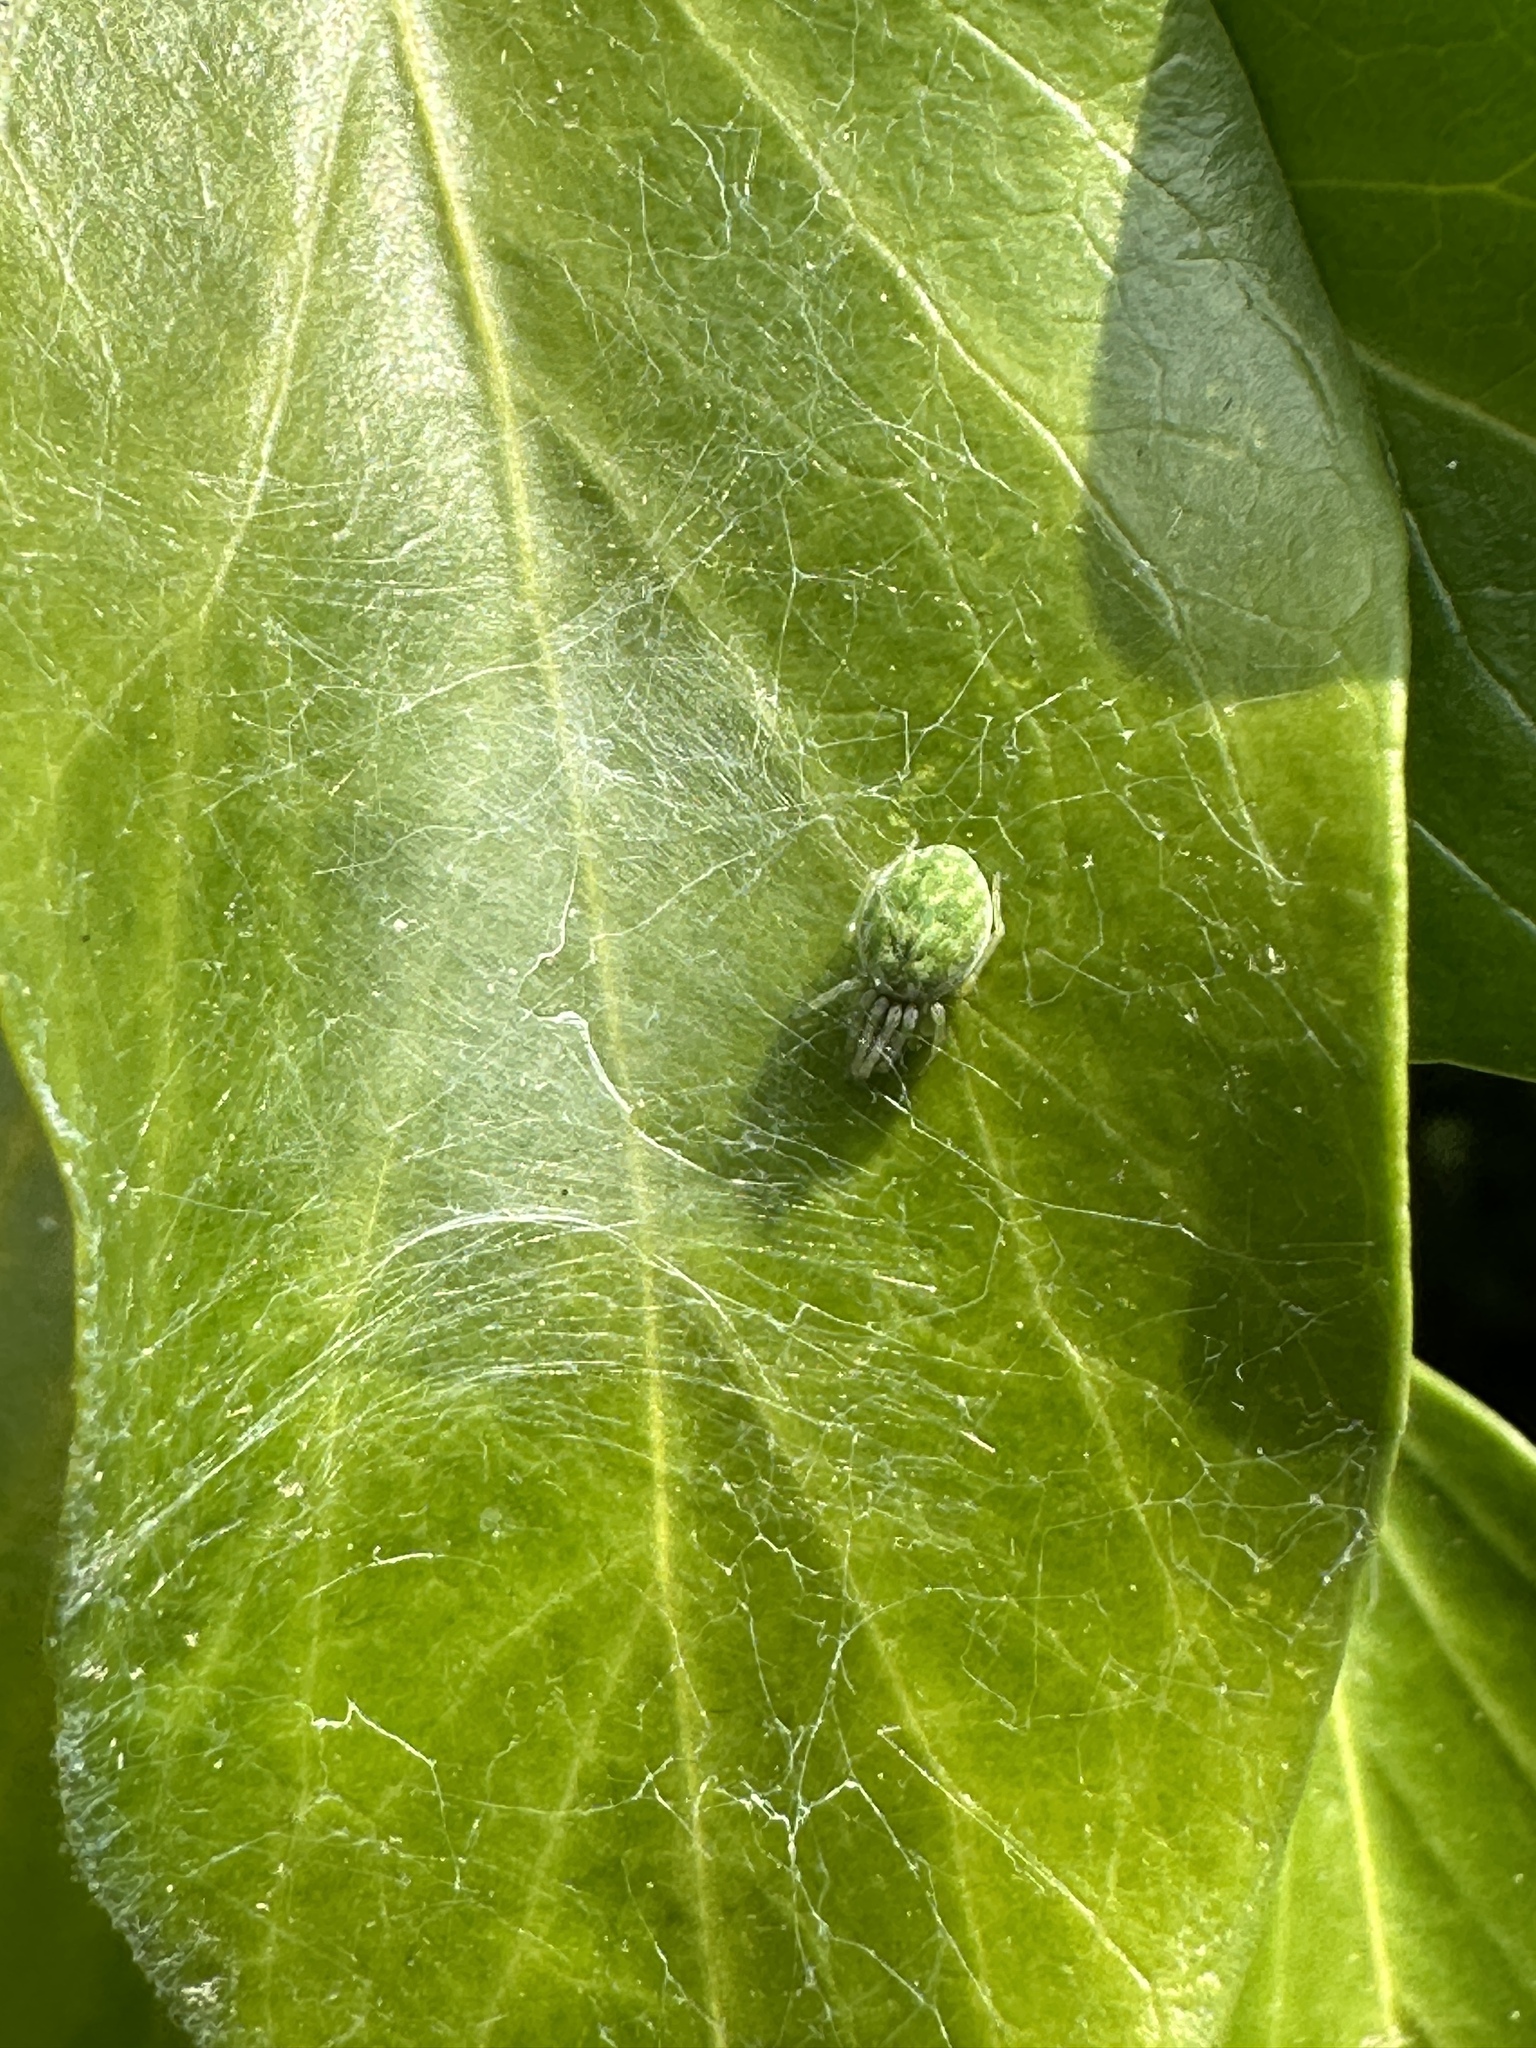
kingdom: Animalia
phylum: Arthropoda
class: Arachnida
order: Araneae
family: Dictynidae
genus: Nigma
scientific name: Nigma walckenaeri
